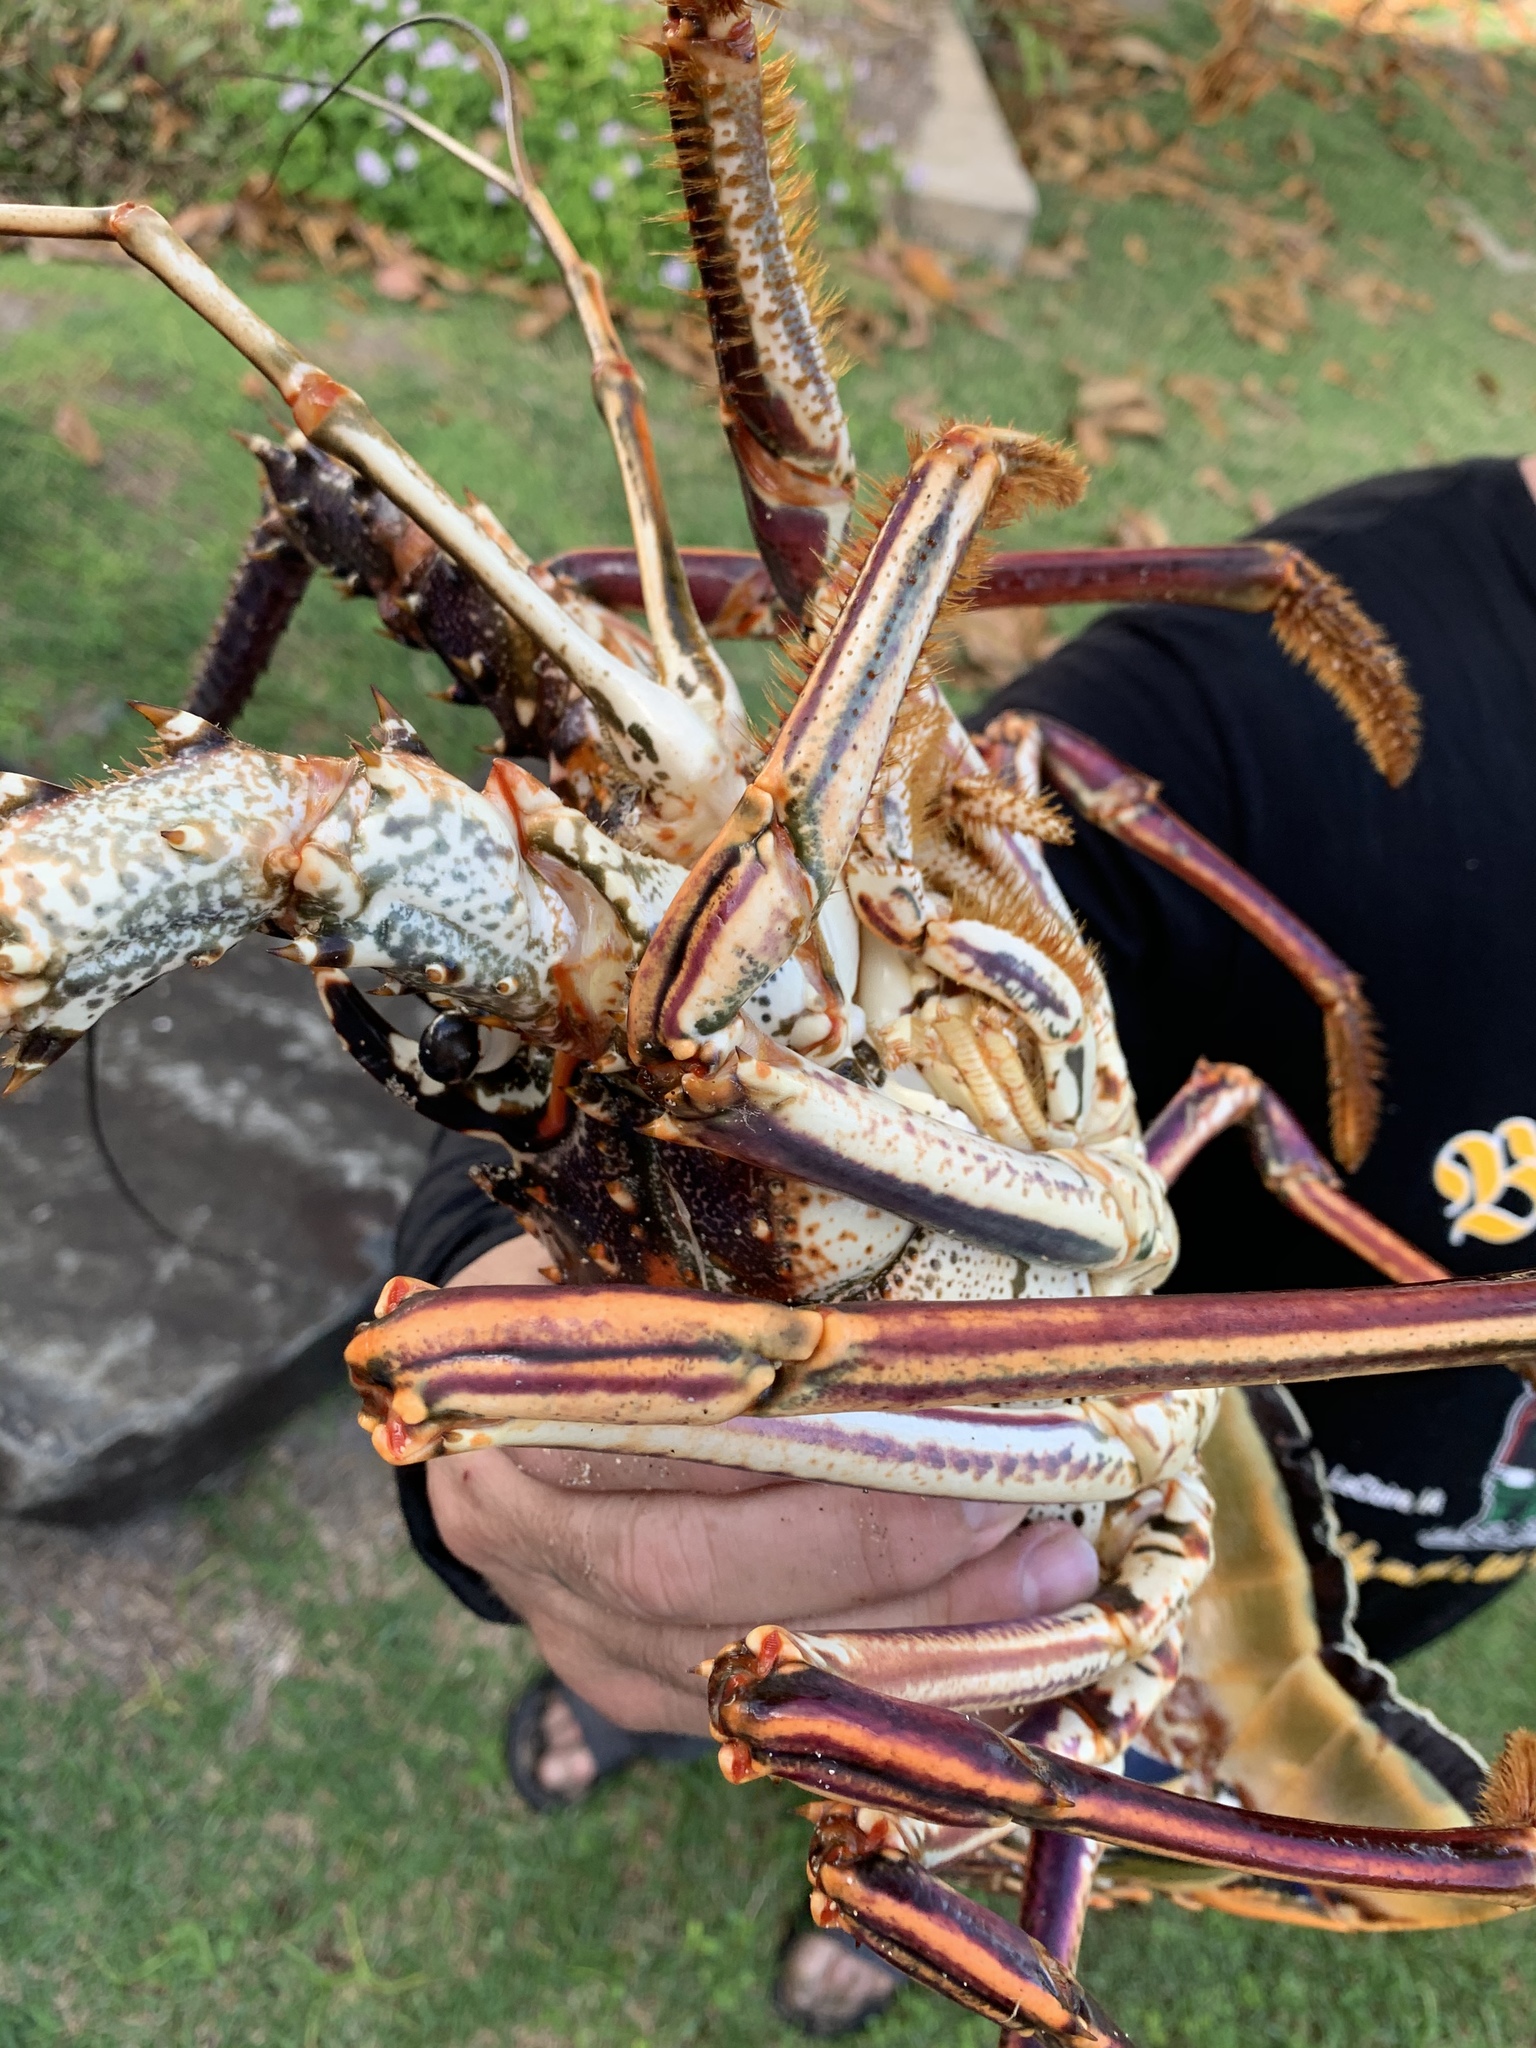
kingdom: Animalia
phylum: Arthropoda
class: Malacostraca
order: Decapoda
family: Palinuridae
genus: Panulirus
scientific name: Panulirus argus
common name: Caribbean spiny lobster
